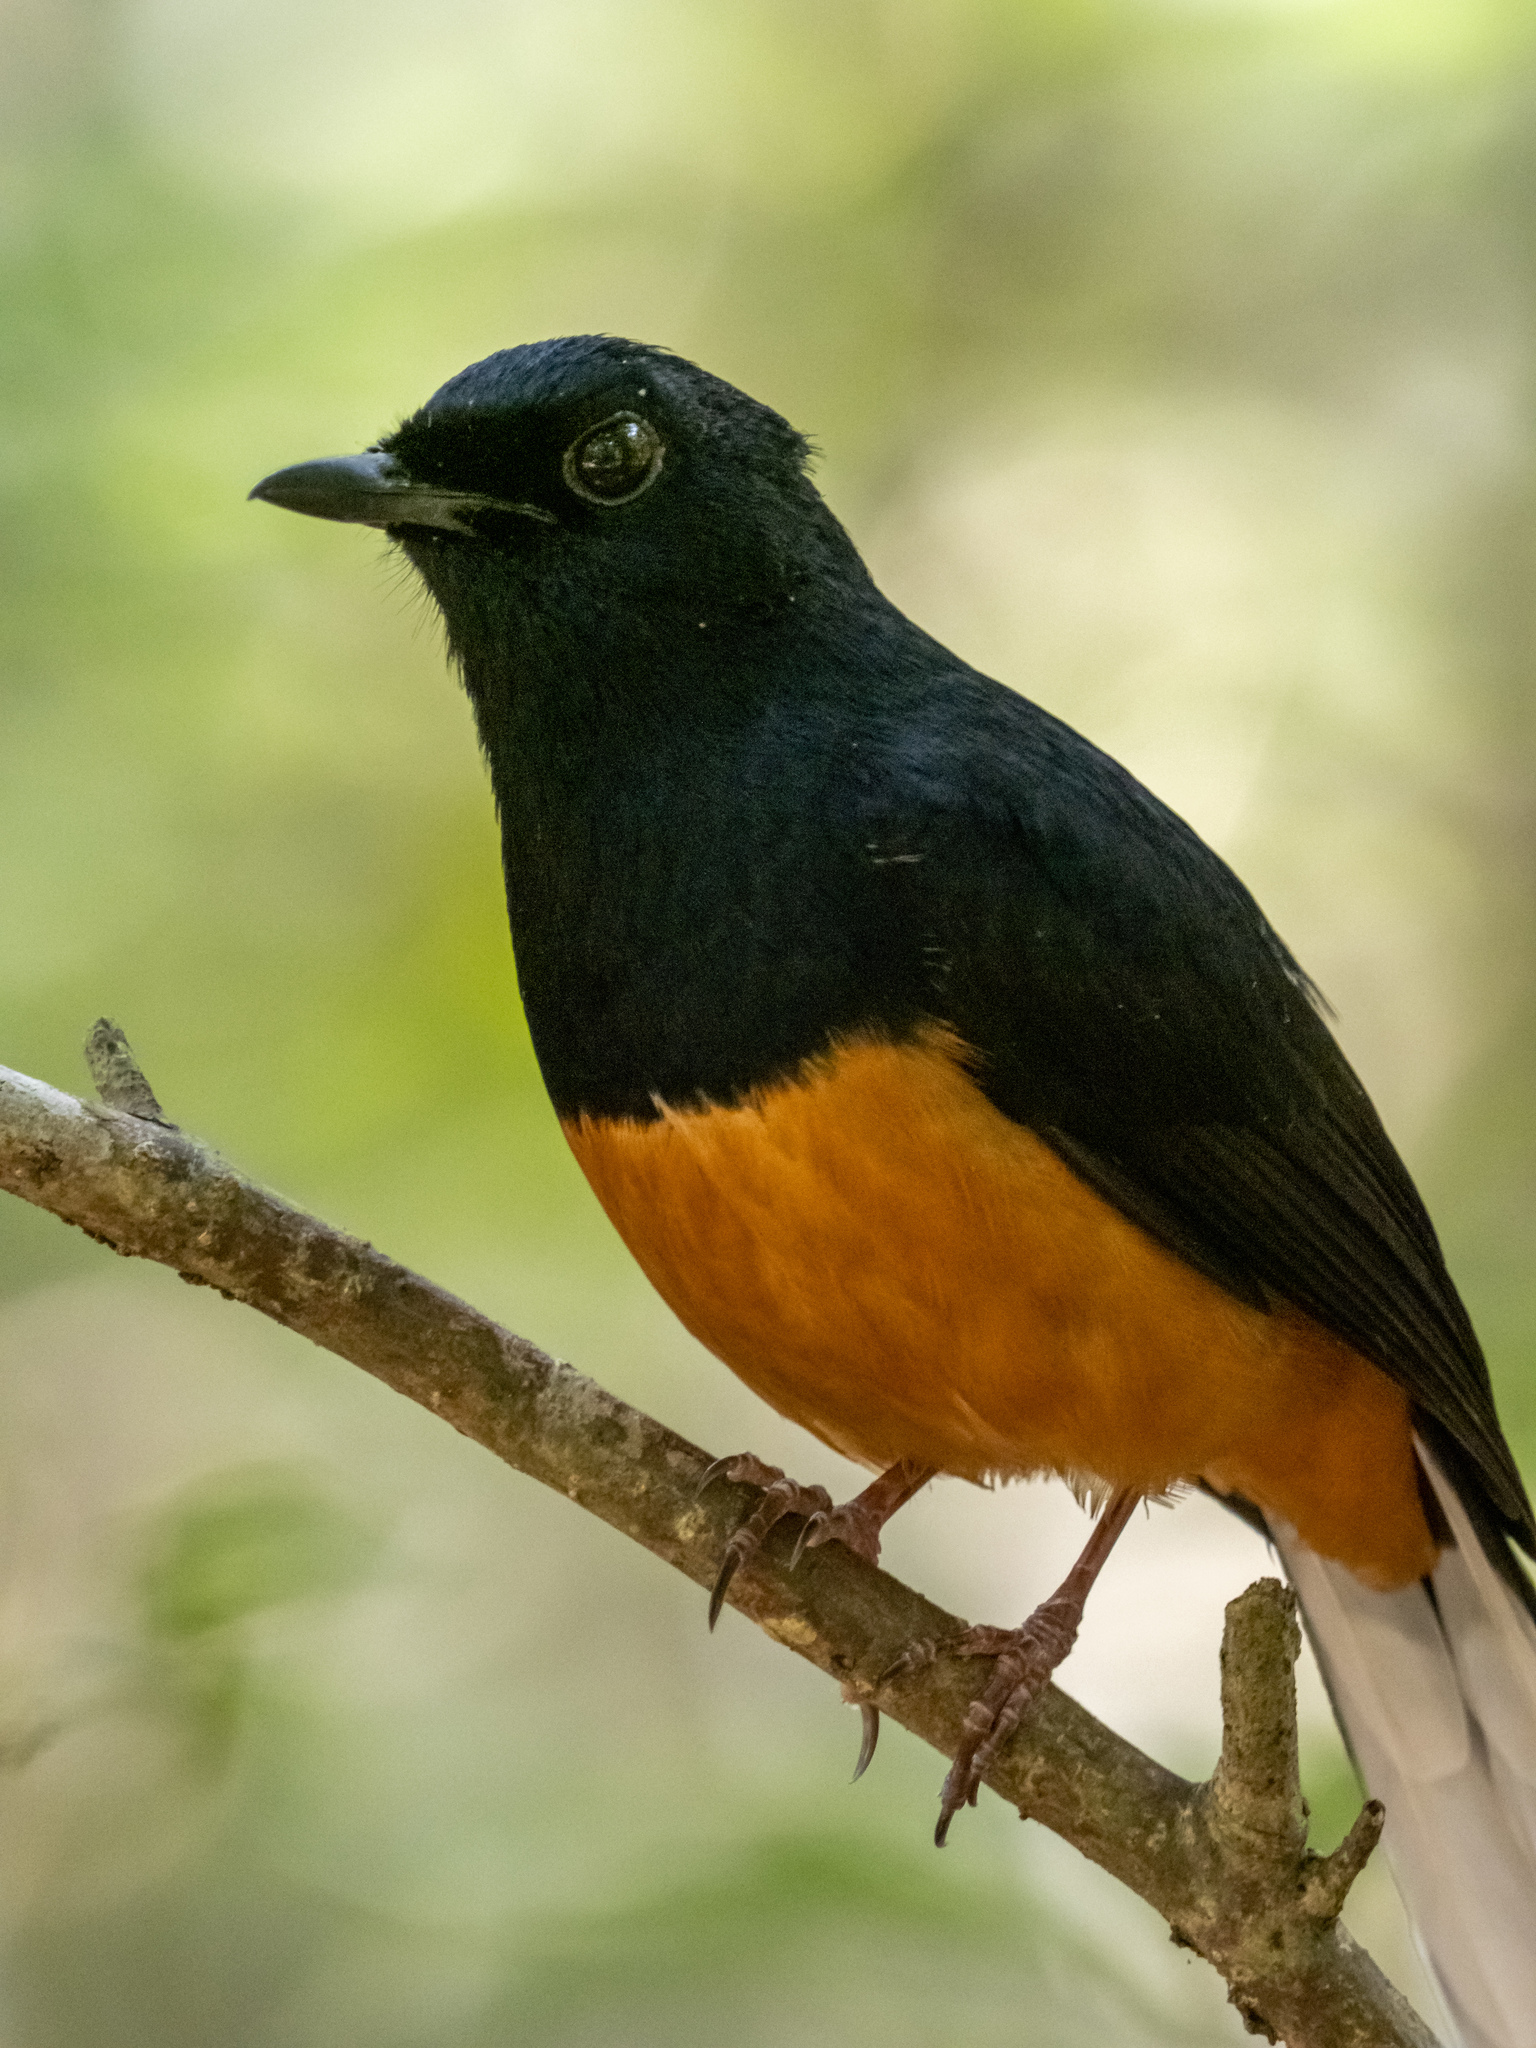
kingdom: Animalia
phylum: Chordata
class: Aves
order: Passeriformes
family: Muscicapidae
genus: Copsychus
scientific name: Copsychus malabaricus
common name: White-rumped shama
